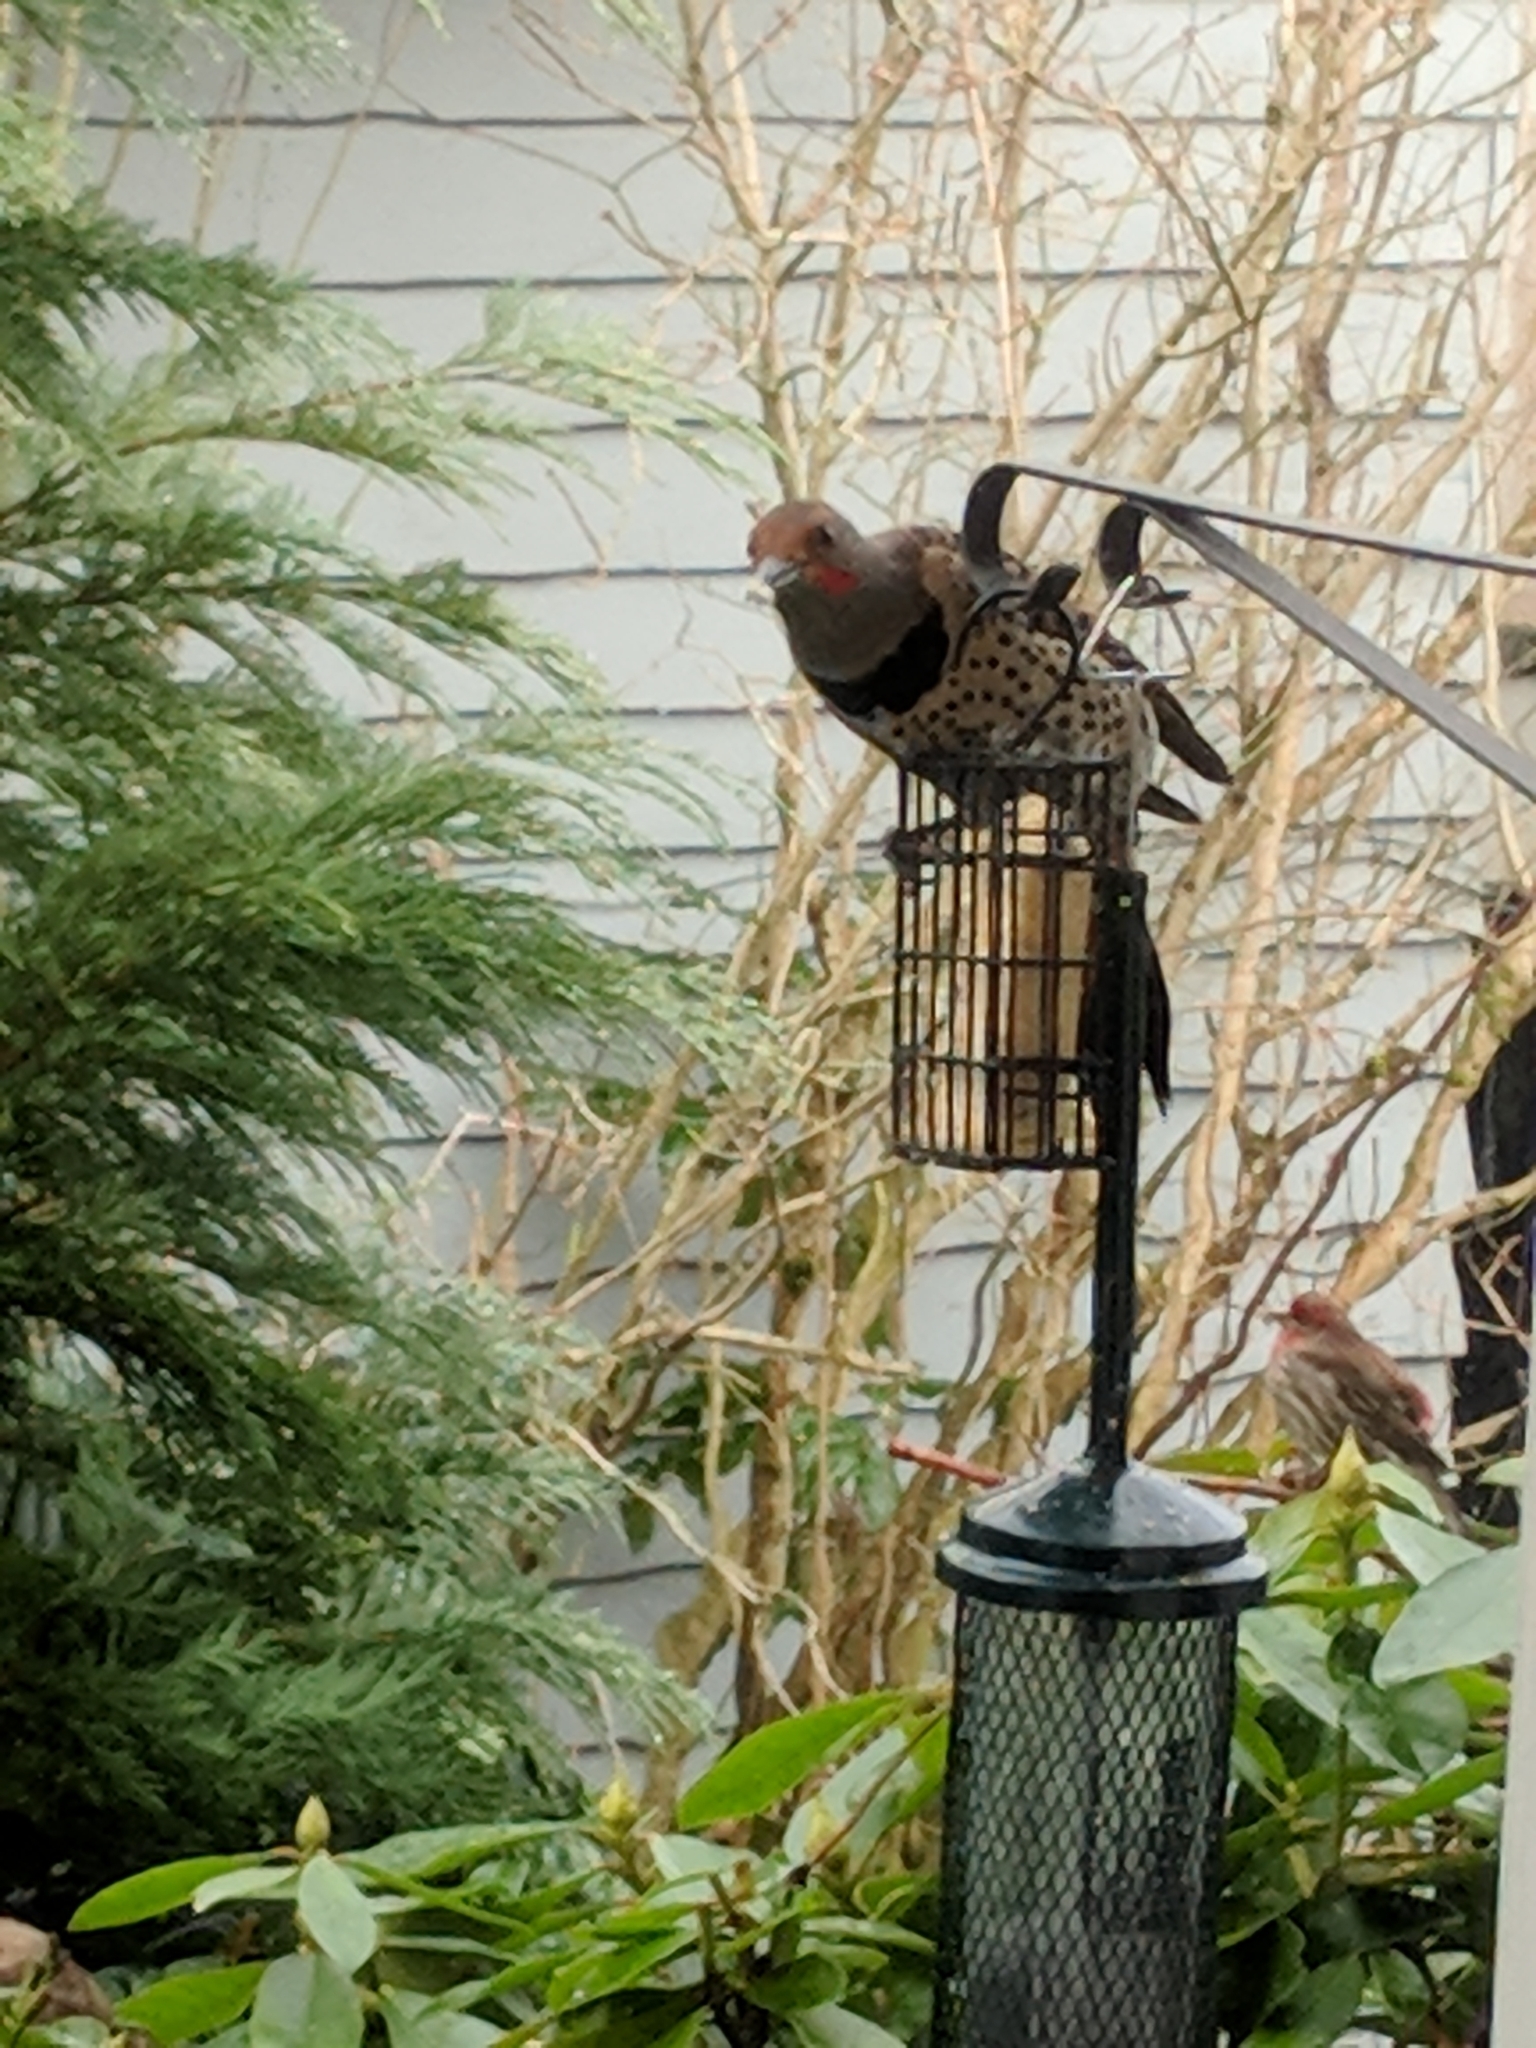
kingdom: Animalia
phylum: Chordata
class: Aves
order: Piciformes
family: Picidae
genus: Colaptes
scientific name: Colaptes auratus
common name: Northern flicker
